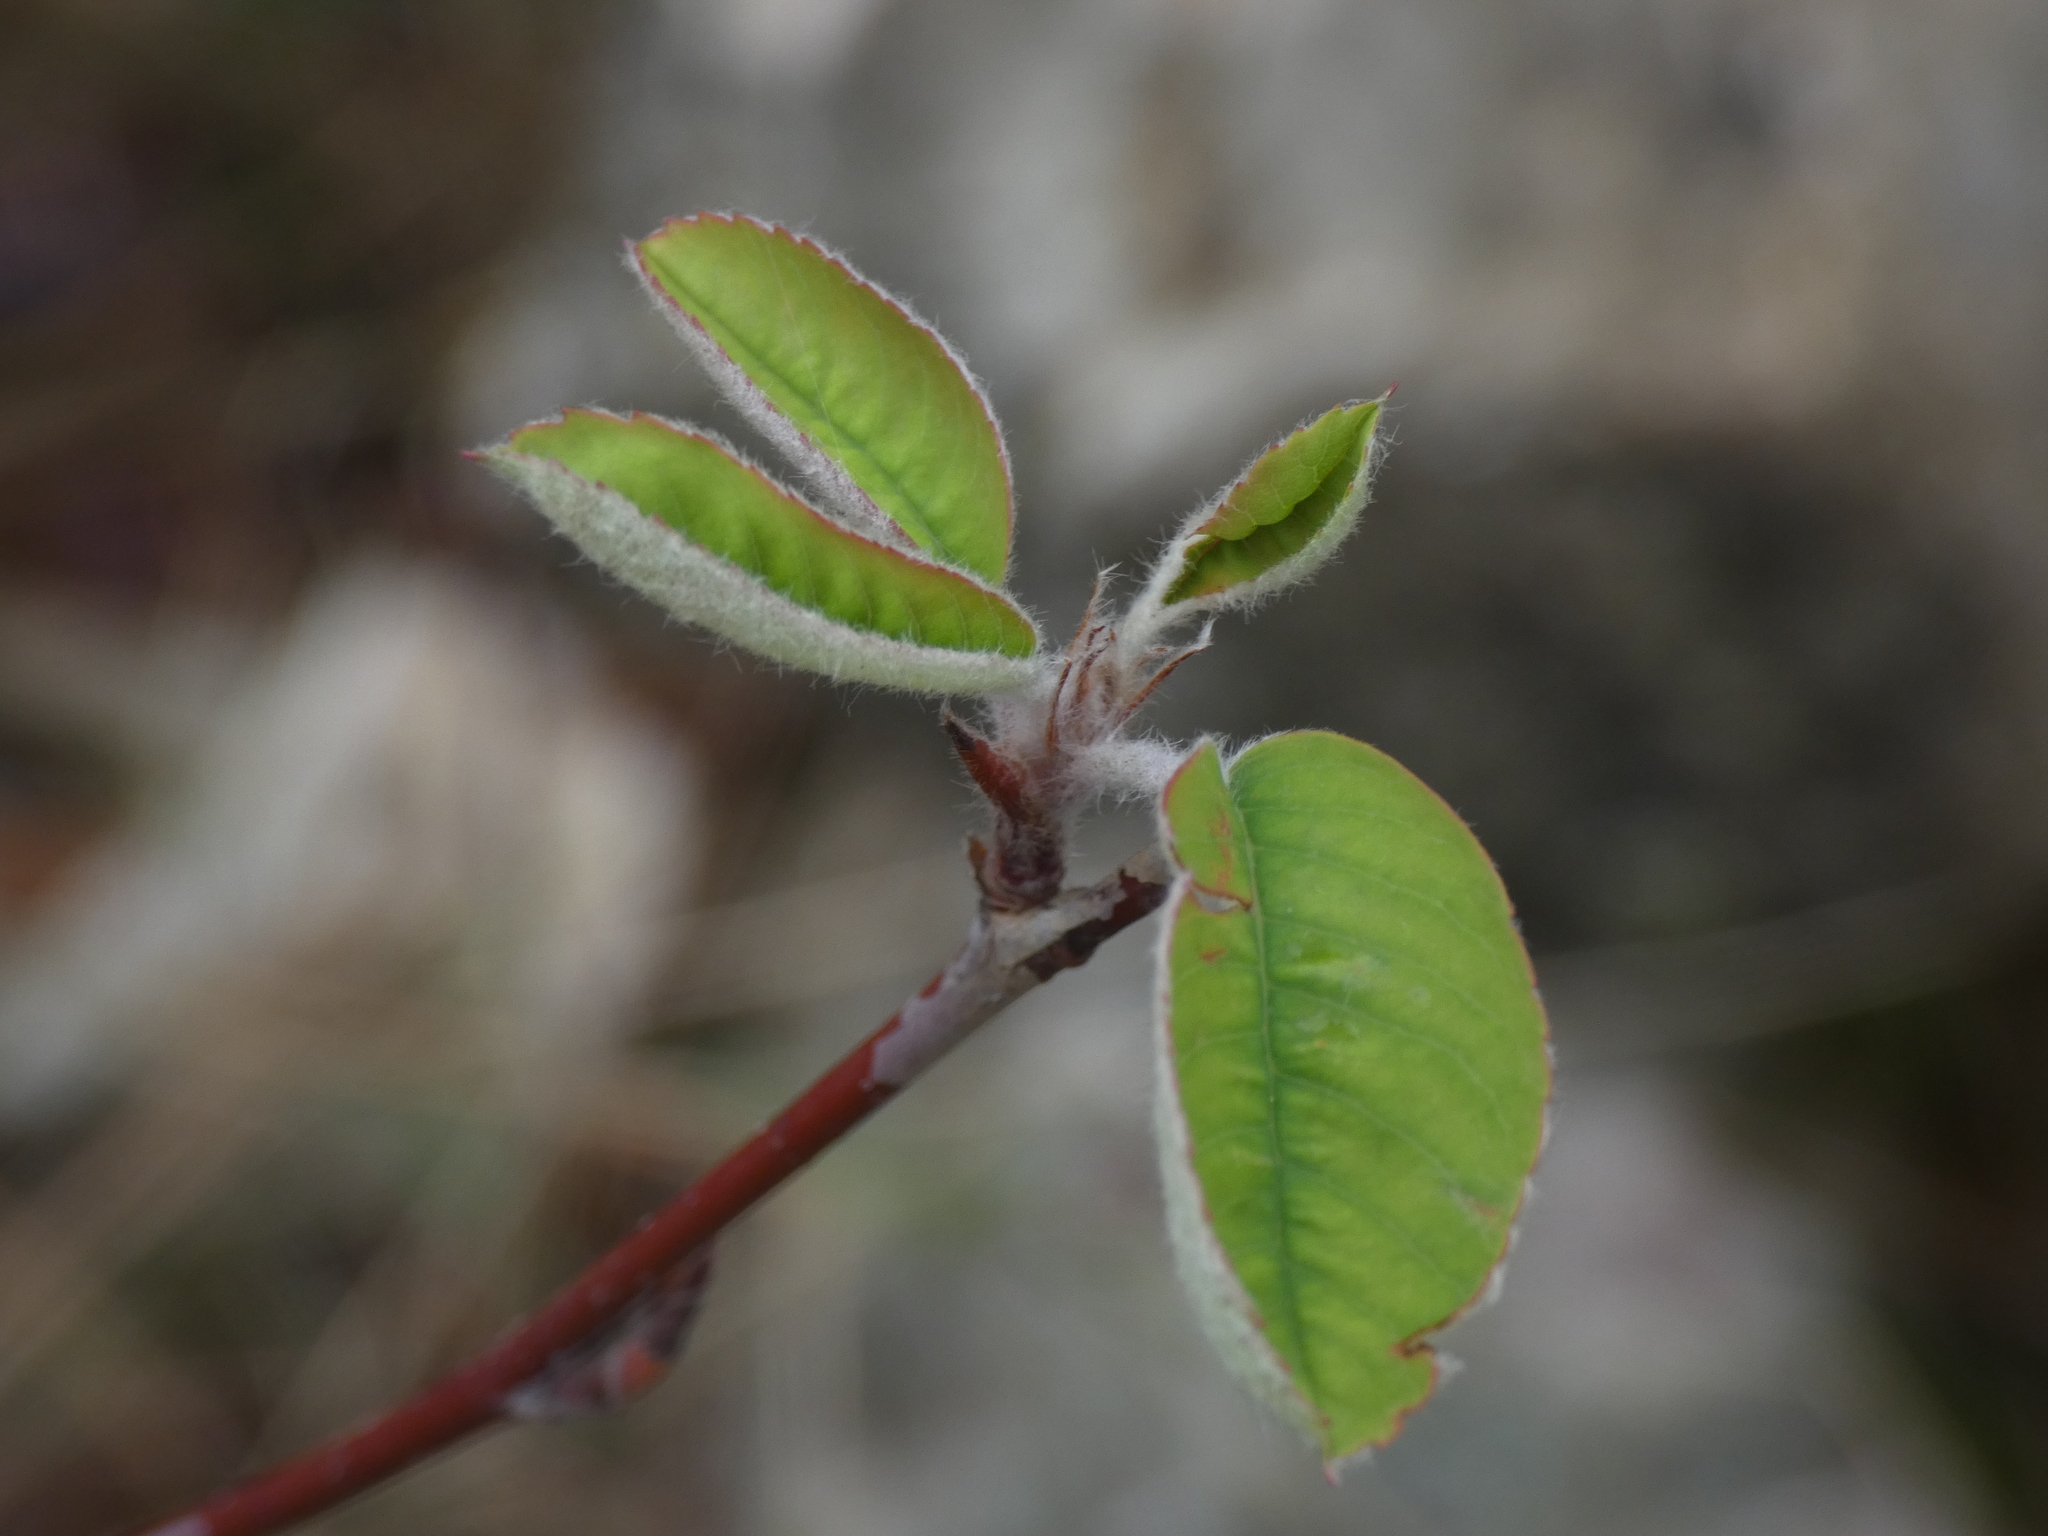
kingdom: Plantae
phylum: Tracheophyta
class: Magnoliopsida
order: Rosales
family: Rosaceae
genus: Amelanchier
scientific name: Amelanchier ovalis
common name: Serviceberry
